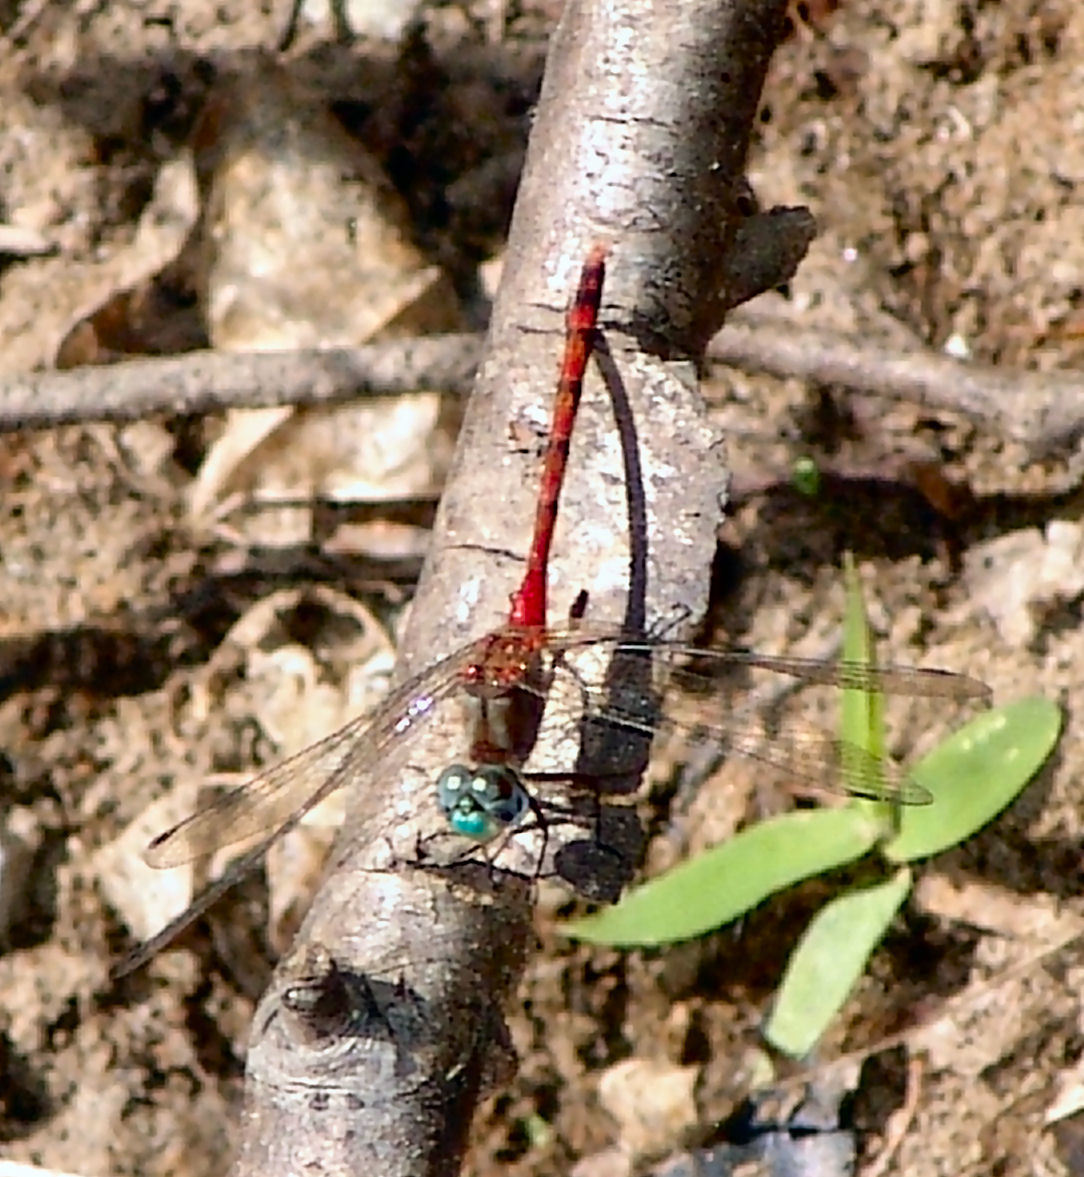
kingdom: Animalia
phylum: Arthropoda
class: Insecta
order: Odonata
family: Libellulidae
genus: Sympetrum
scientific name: Sympetrum ambiguum
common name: Blue-faced meadowhawk
